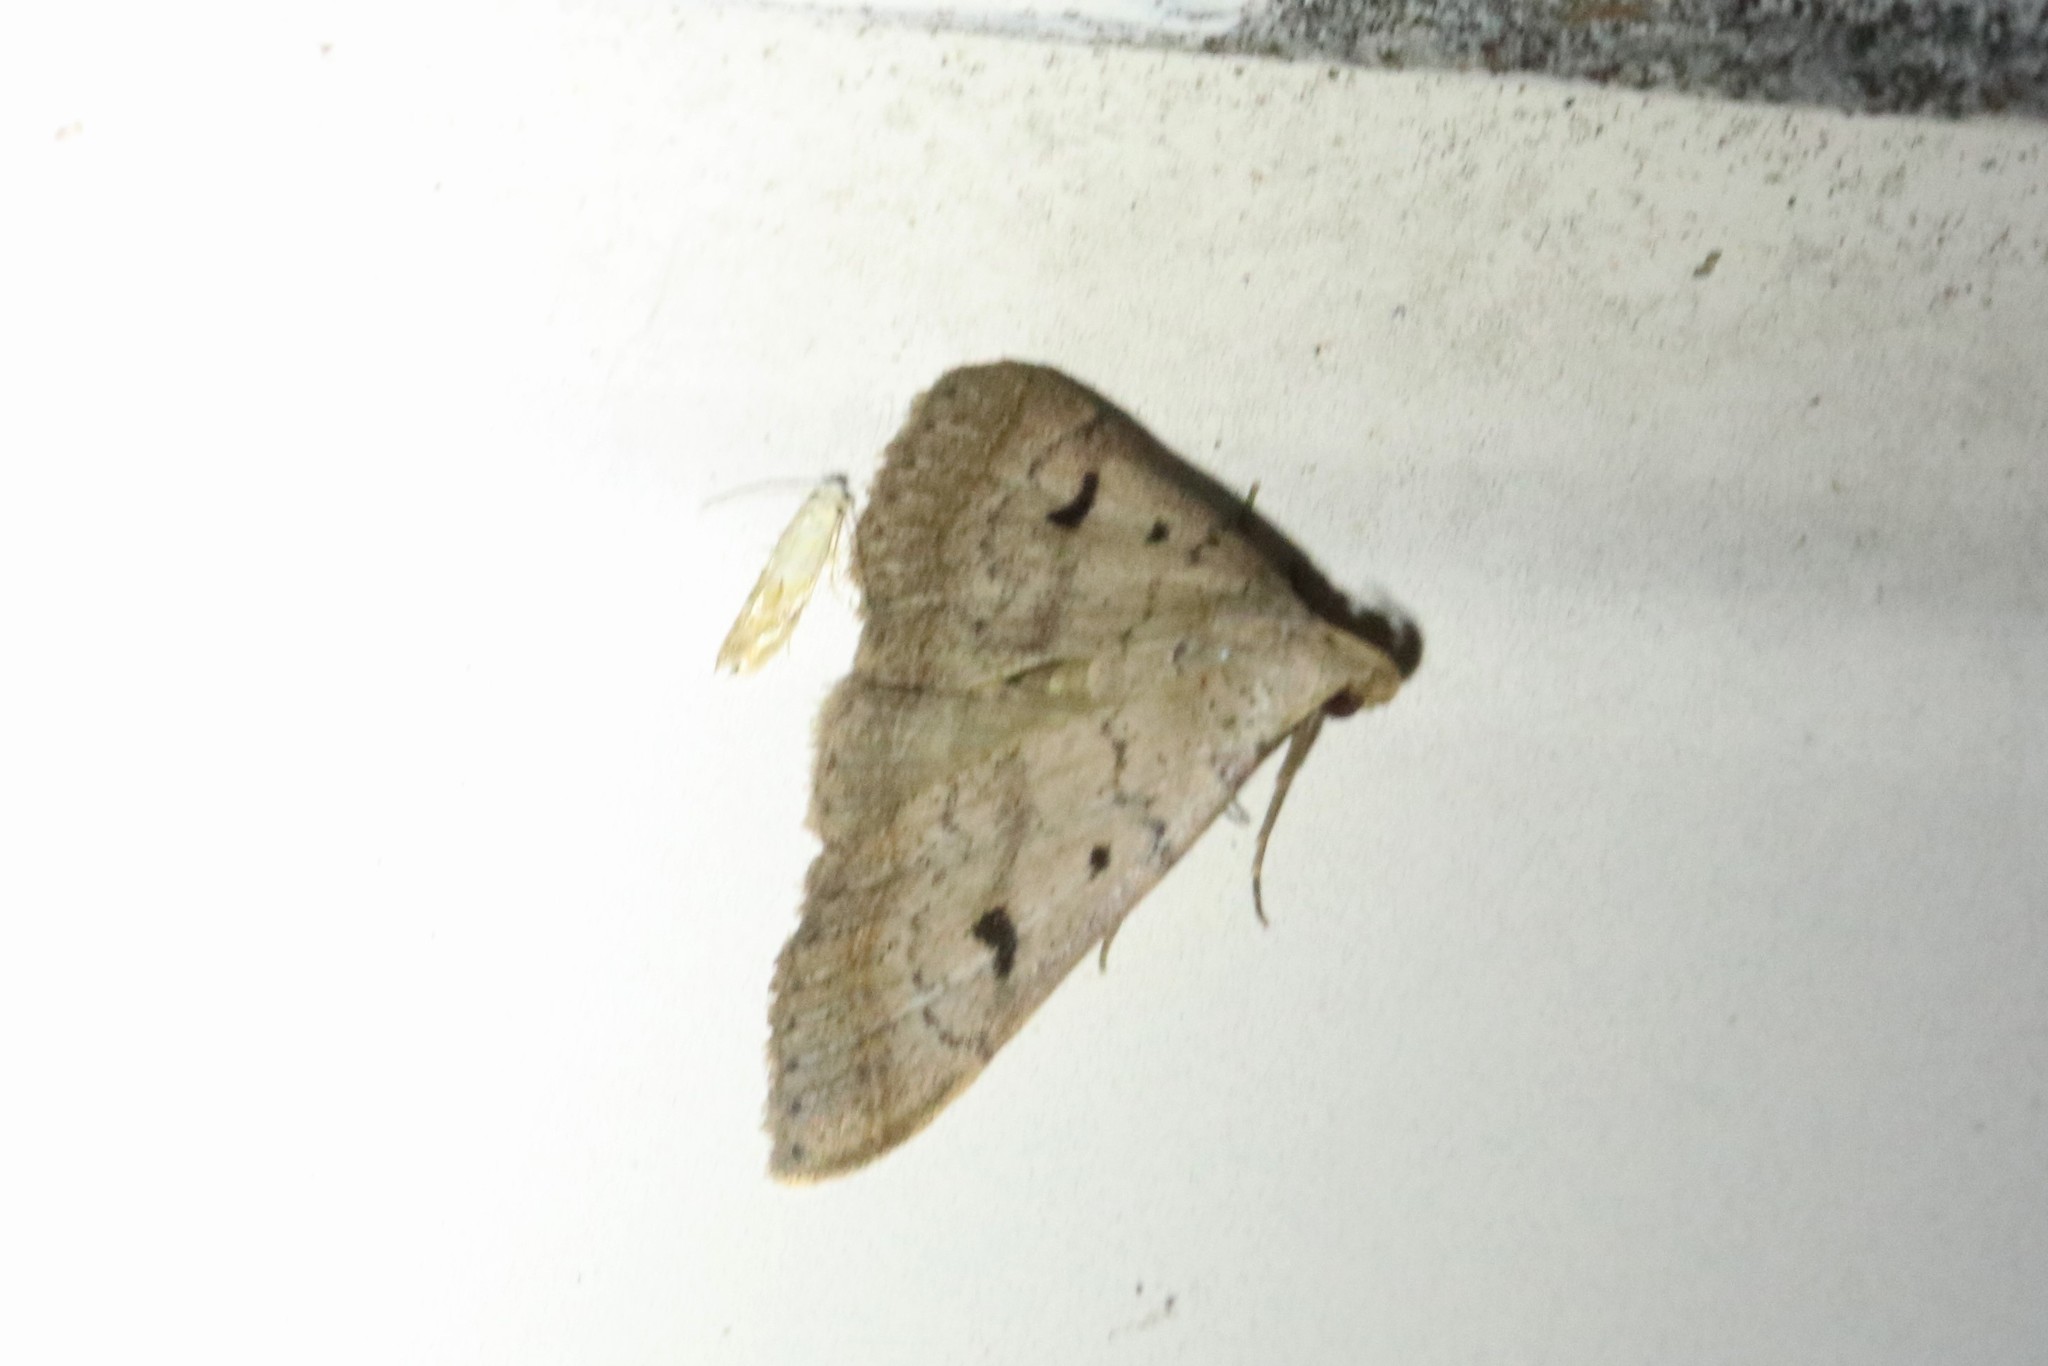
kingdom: Animalia
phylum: Arthropoda
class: Insecta
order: Lepidoptera
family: Erebidae
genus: Bleptina
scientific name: Bleptina caradrinalis
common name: Bent-winged owlet
